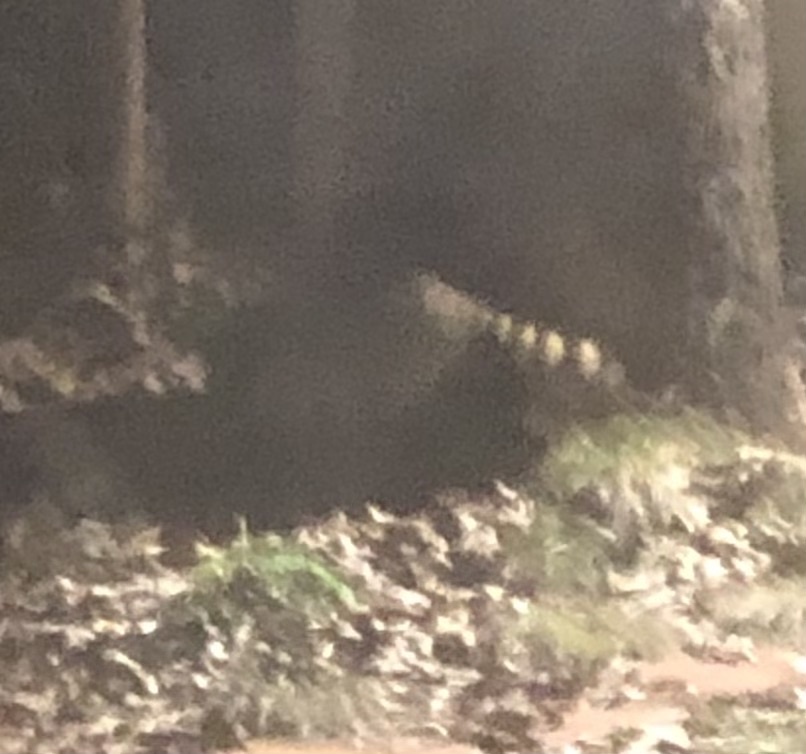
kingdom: Animalia
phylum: Chordata
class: Mammalia
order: Carnivora
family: Procyonidae
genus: Procyon
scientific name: Procyon lotor
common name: Raccoon
